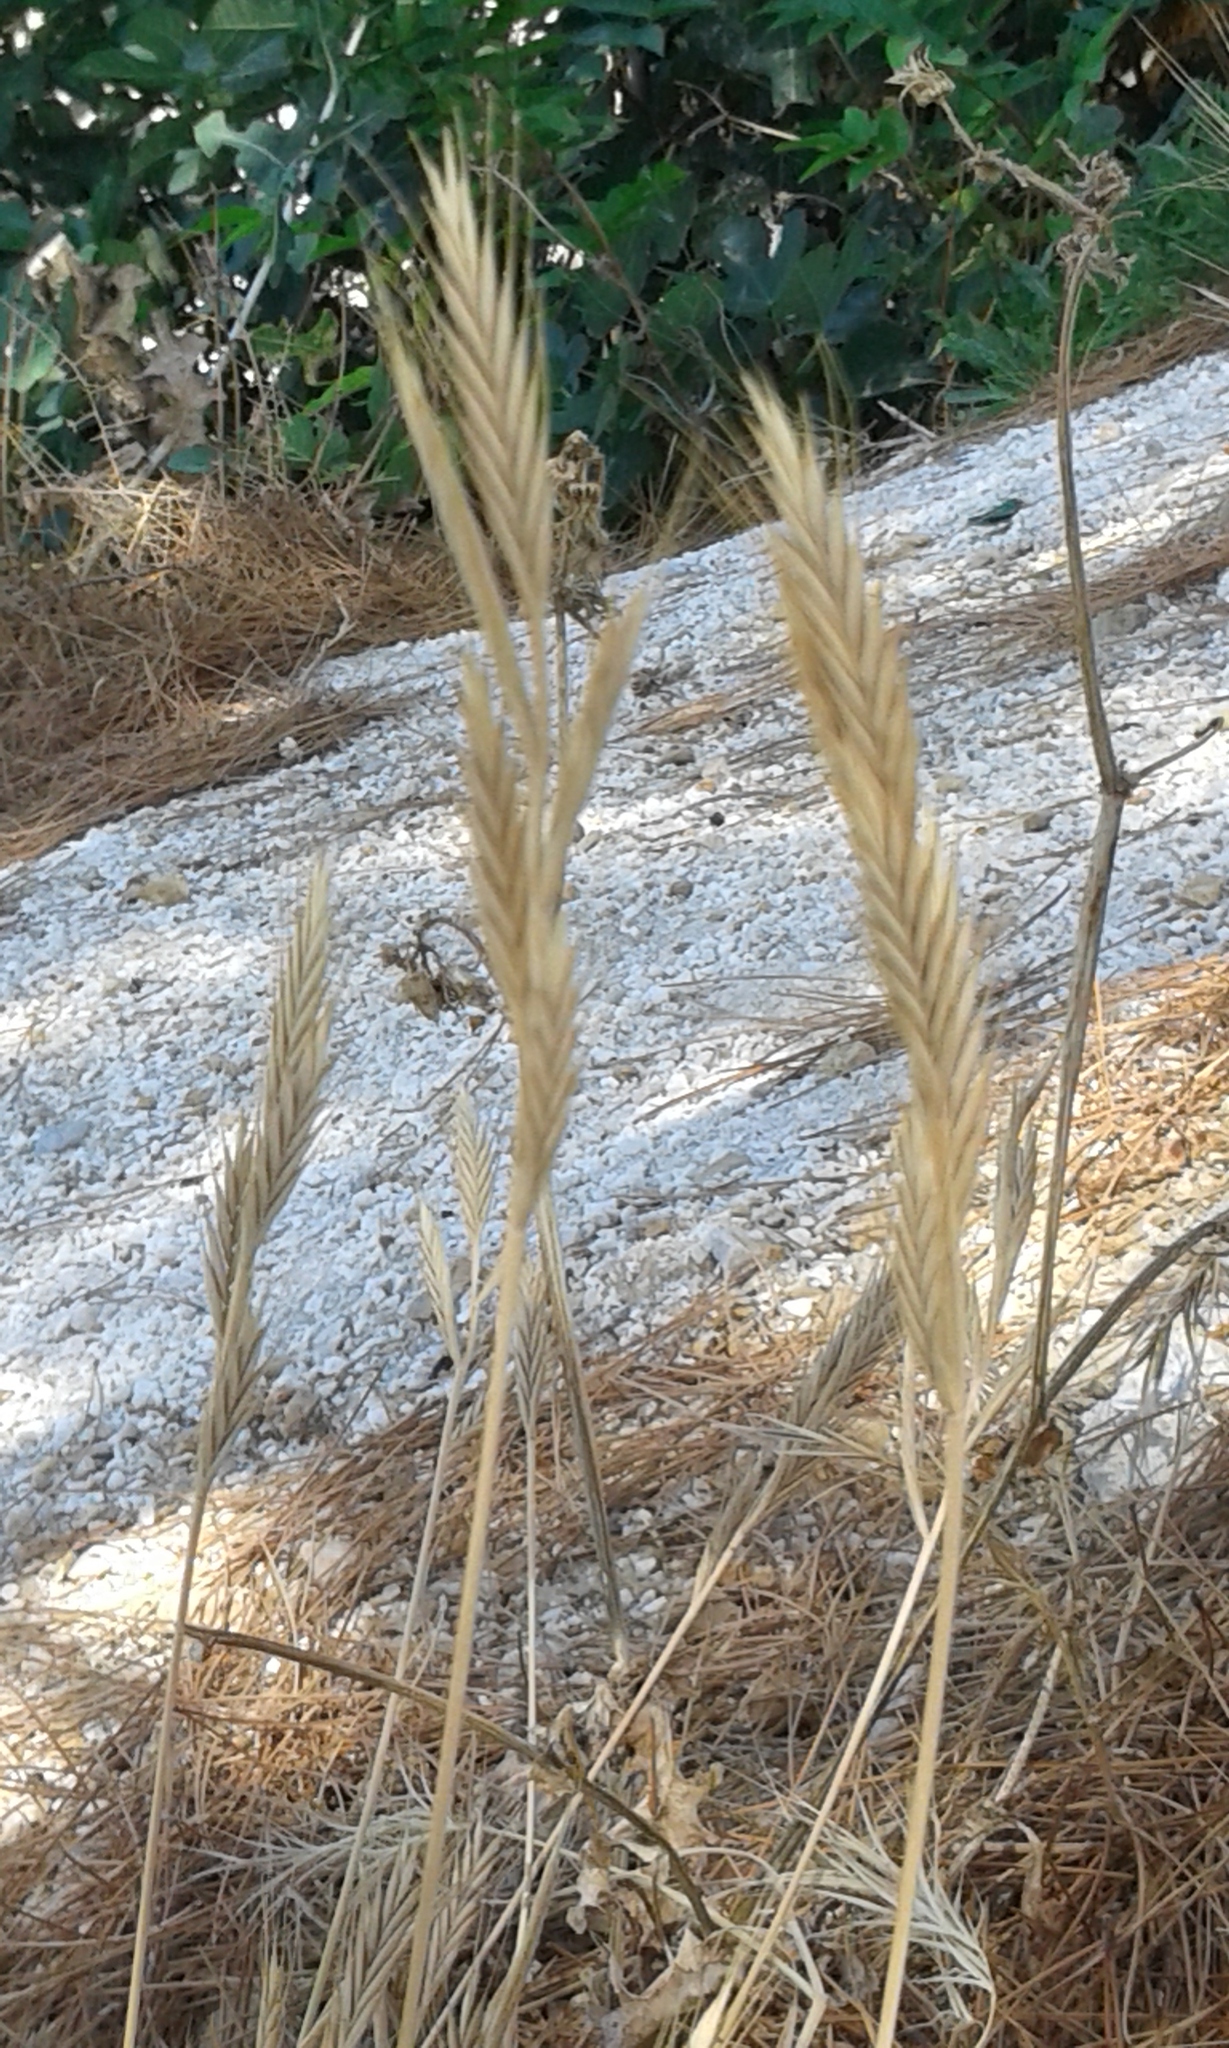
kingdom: Plantae
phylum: Tracheophyta
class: Liliopsida
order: Poales
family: Poaceae
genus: Brachypodium
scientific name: Brachypodium distachyon
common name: Stiff brome
